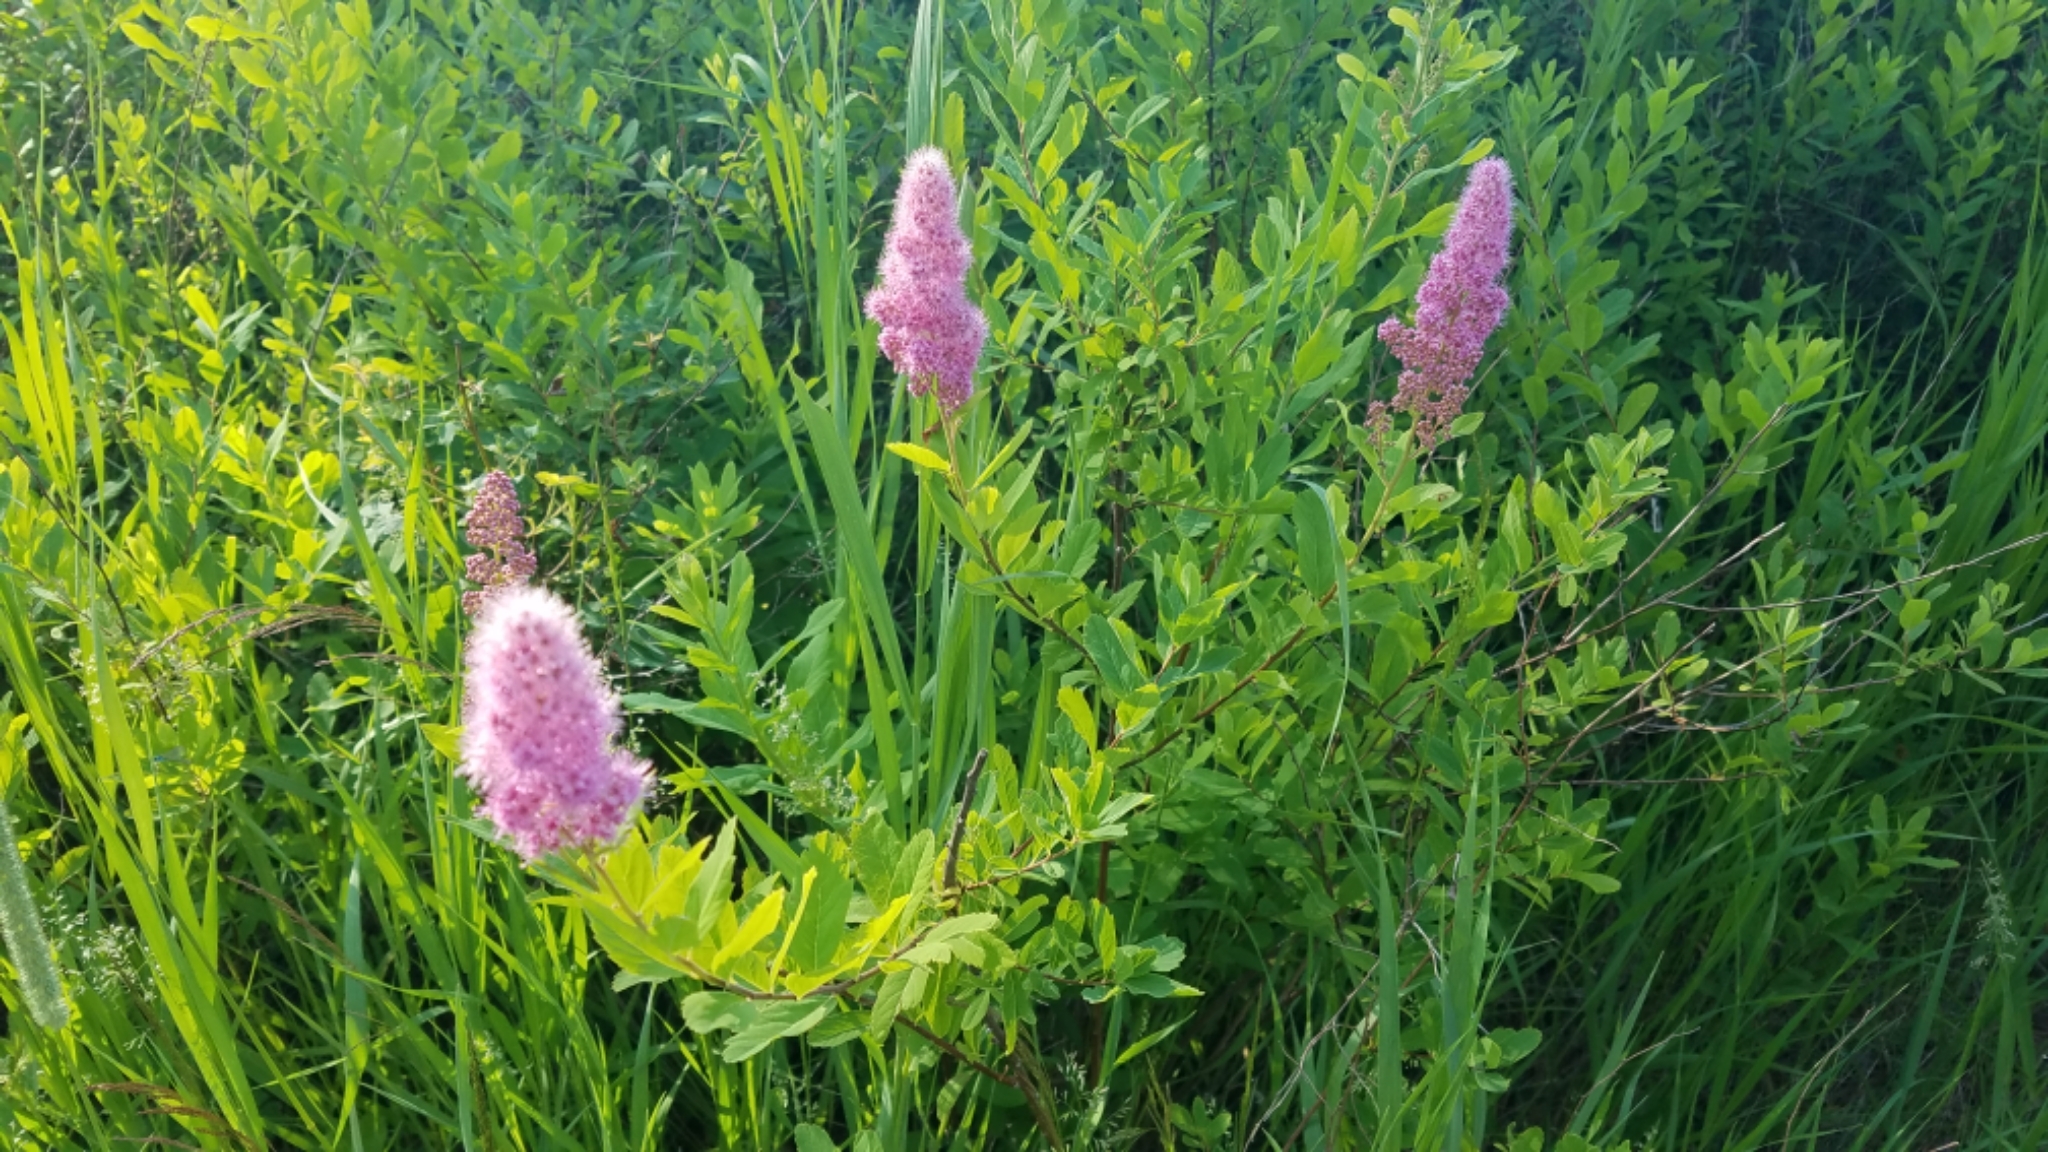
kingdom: Plantae
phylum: Tracheophyta
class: Magnoliopsida
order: Rosales
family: Rosaceae
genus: Spiraea
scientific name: Spiraea douglasii
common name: Steeplebush
